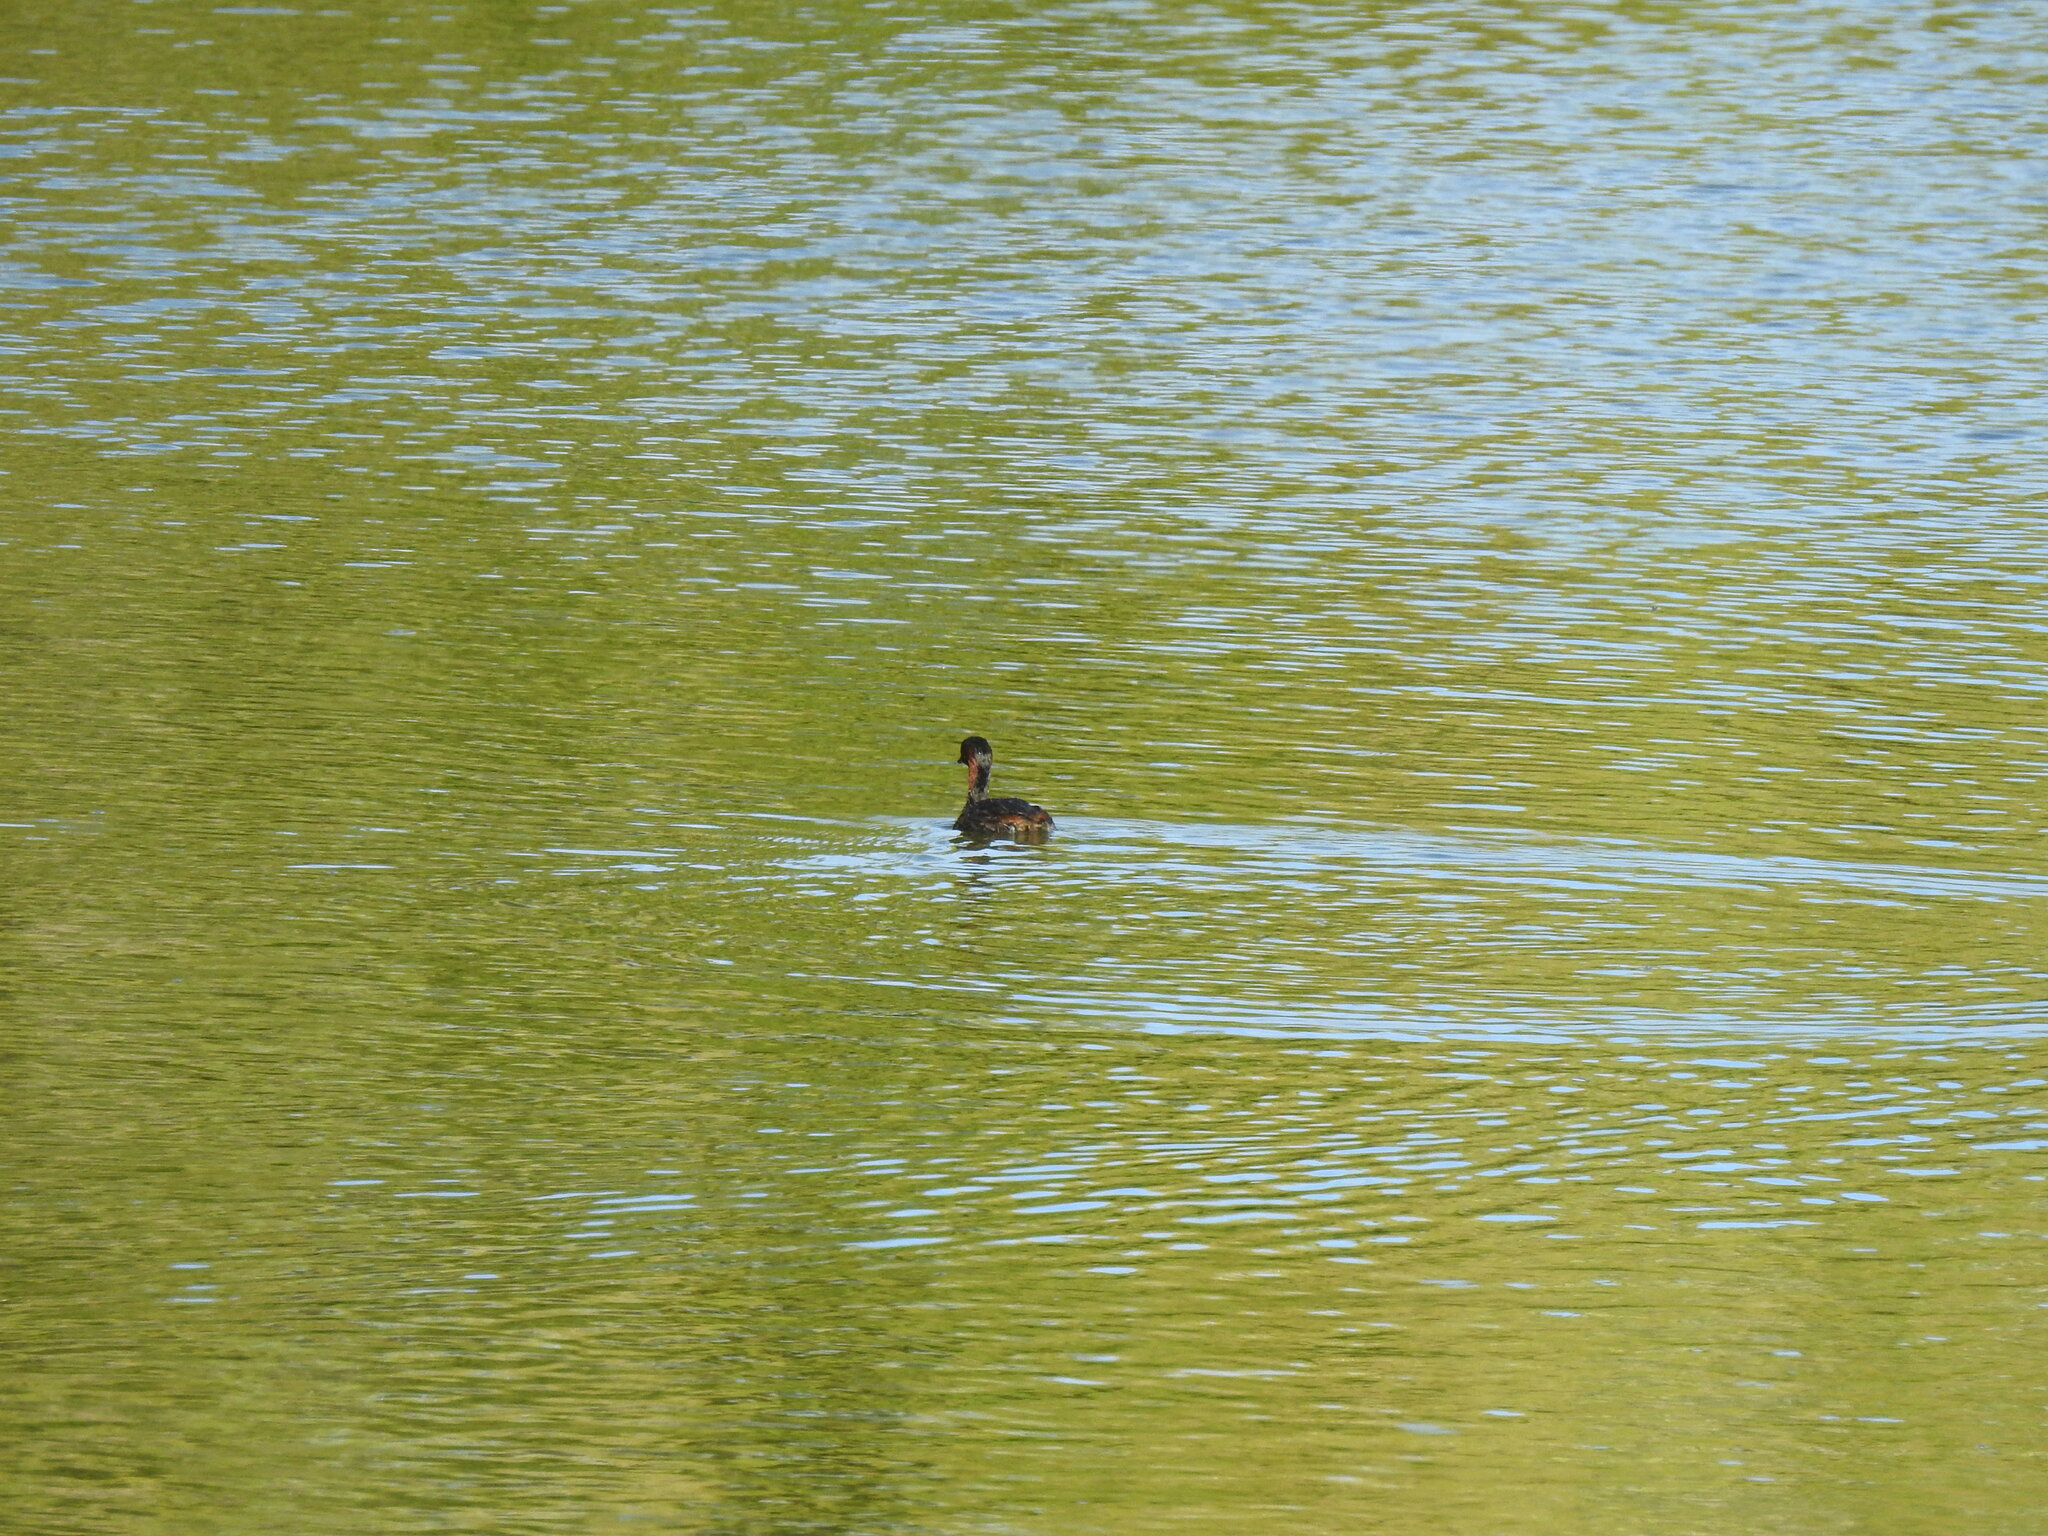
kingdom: Animalia
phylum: Chordata
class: Aves
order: Podicipediformes
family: Podicipedidae
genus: Tachybaptus
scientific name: Tachybaptus ruficollis
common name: Little grebe
